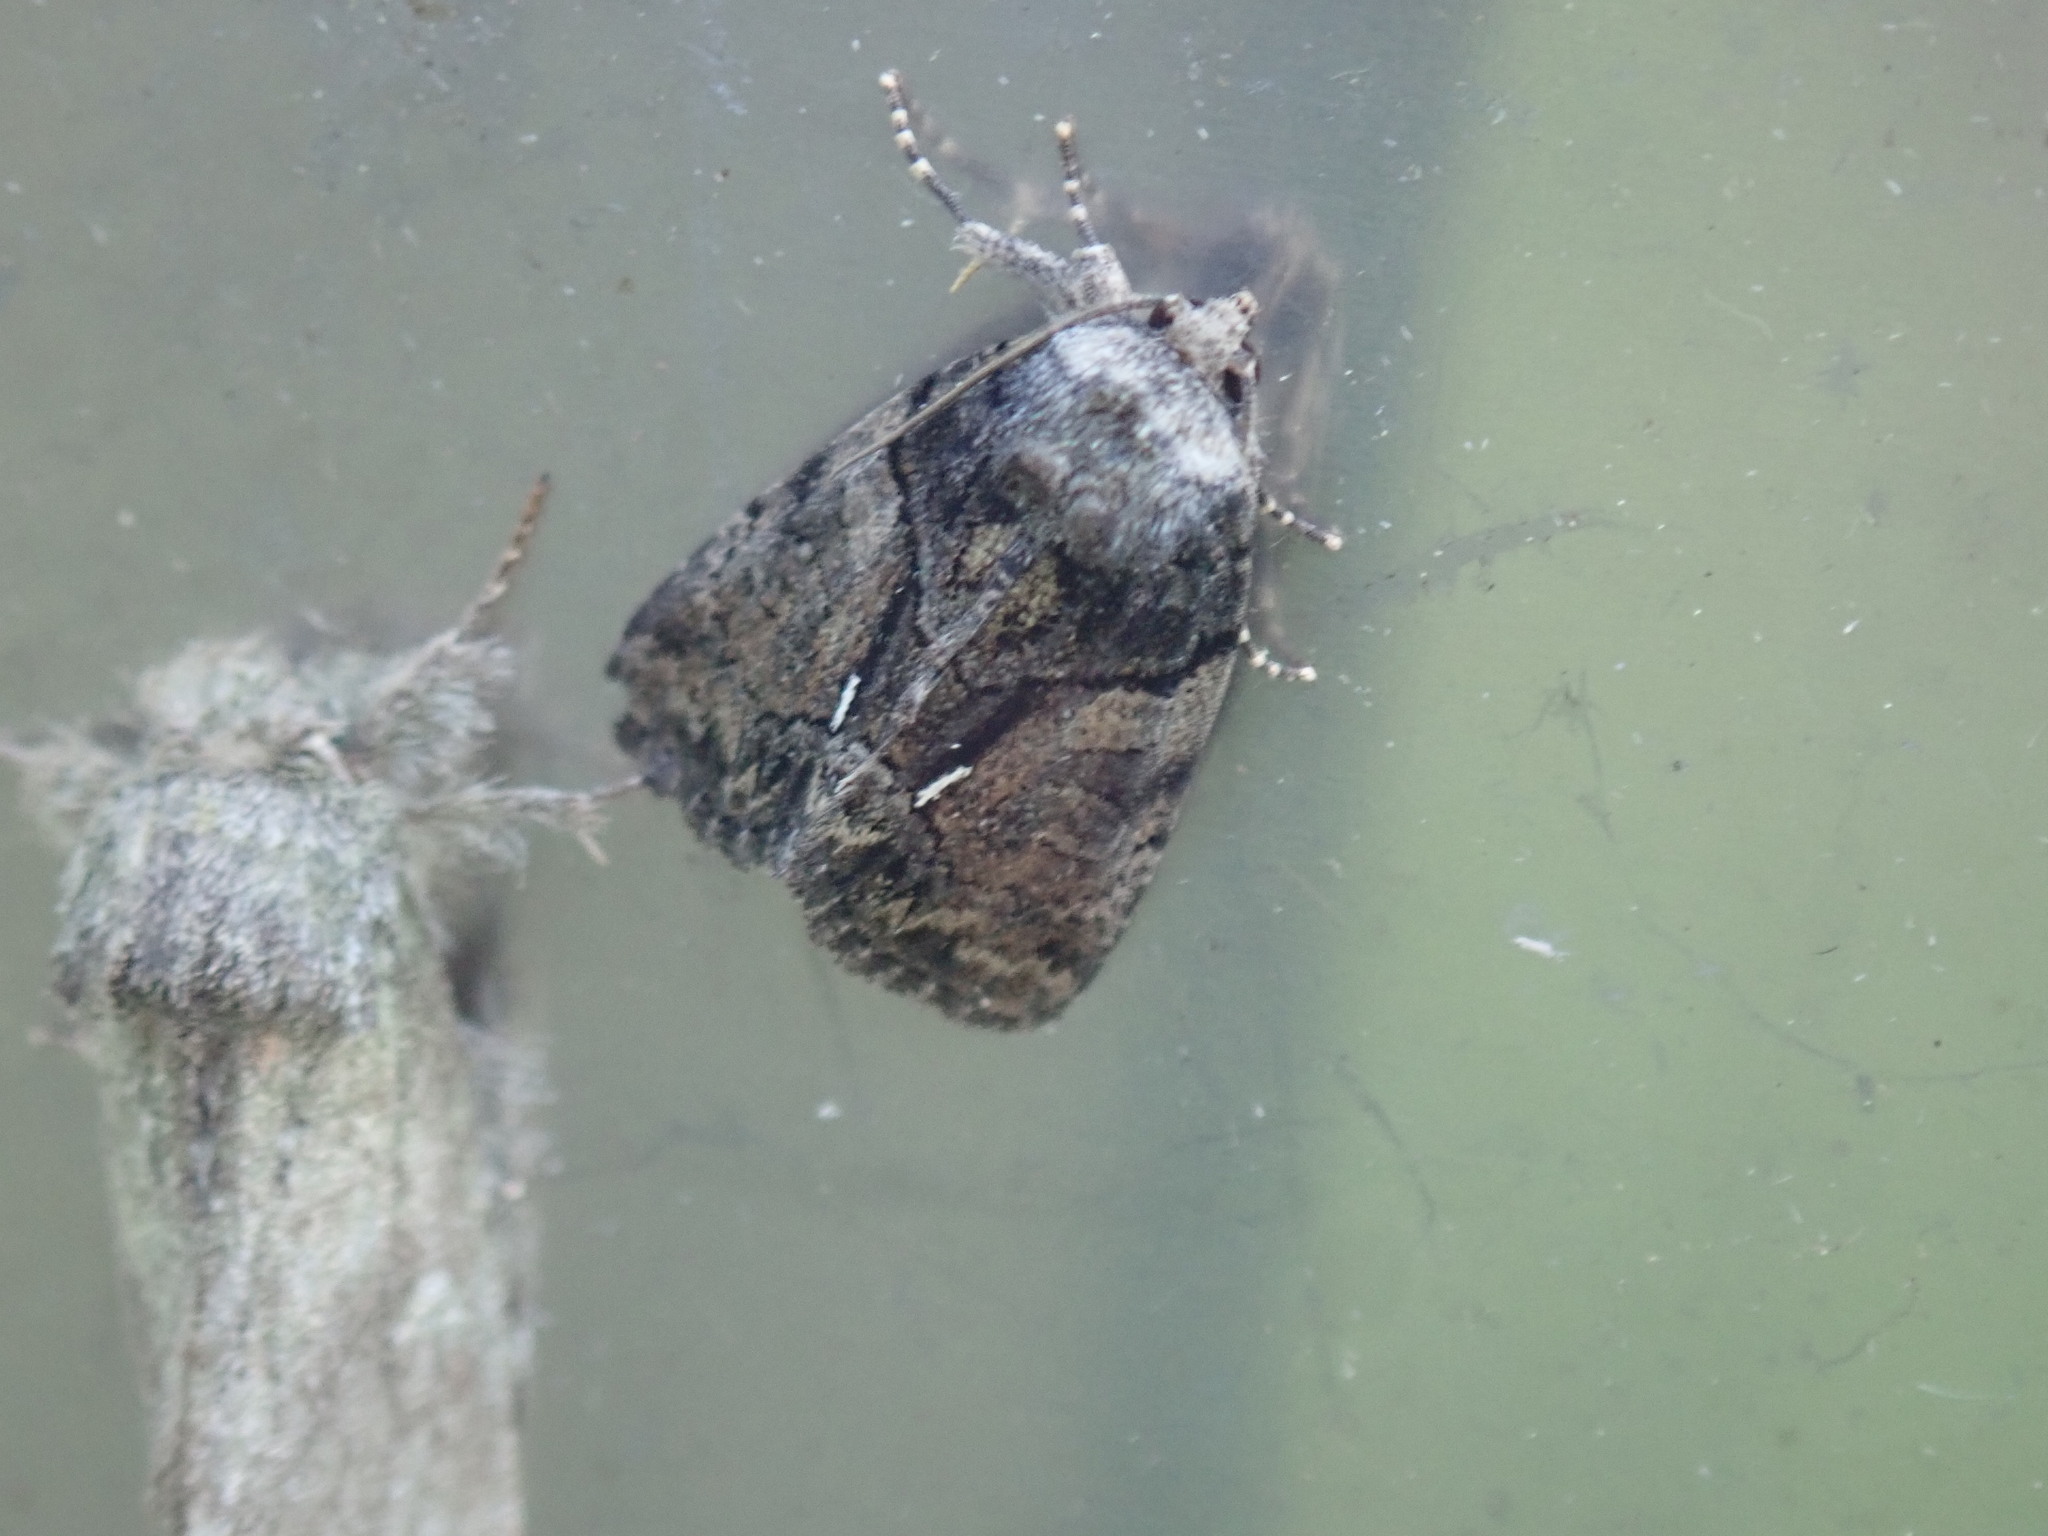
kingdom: Animalia
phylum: Arthropoda
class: Insecta
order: Lepidoptera
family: Noctuidae
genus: Chytonix
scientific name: Chytonix palliatricula
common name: Cloaked marvel
